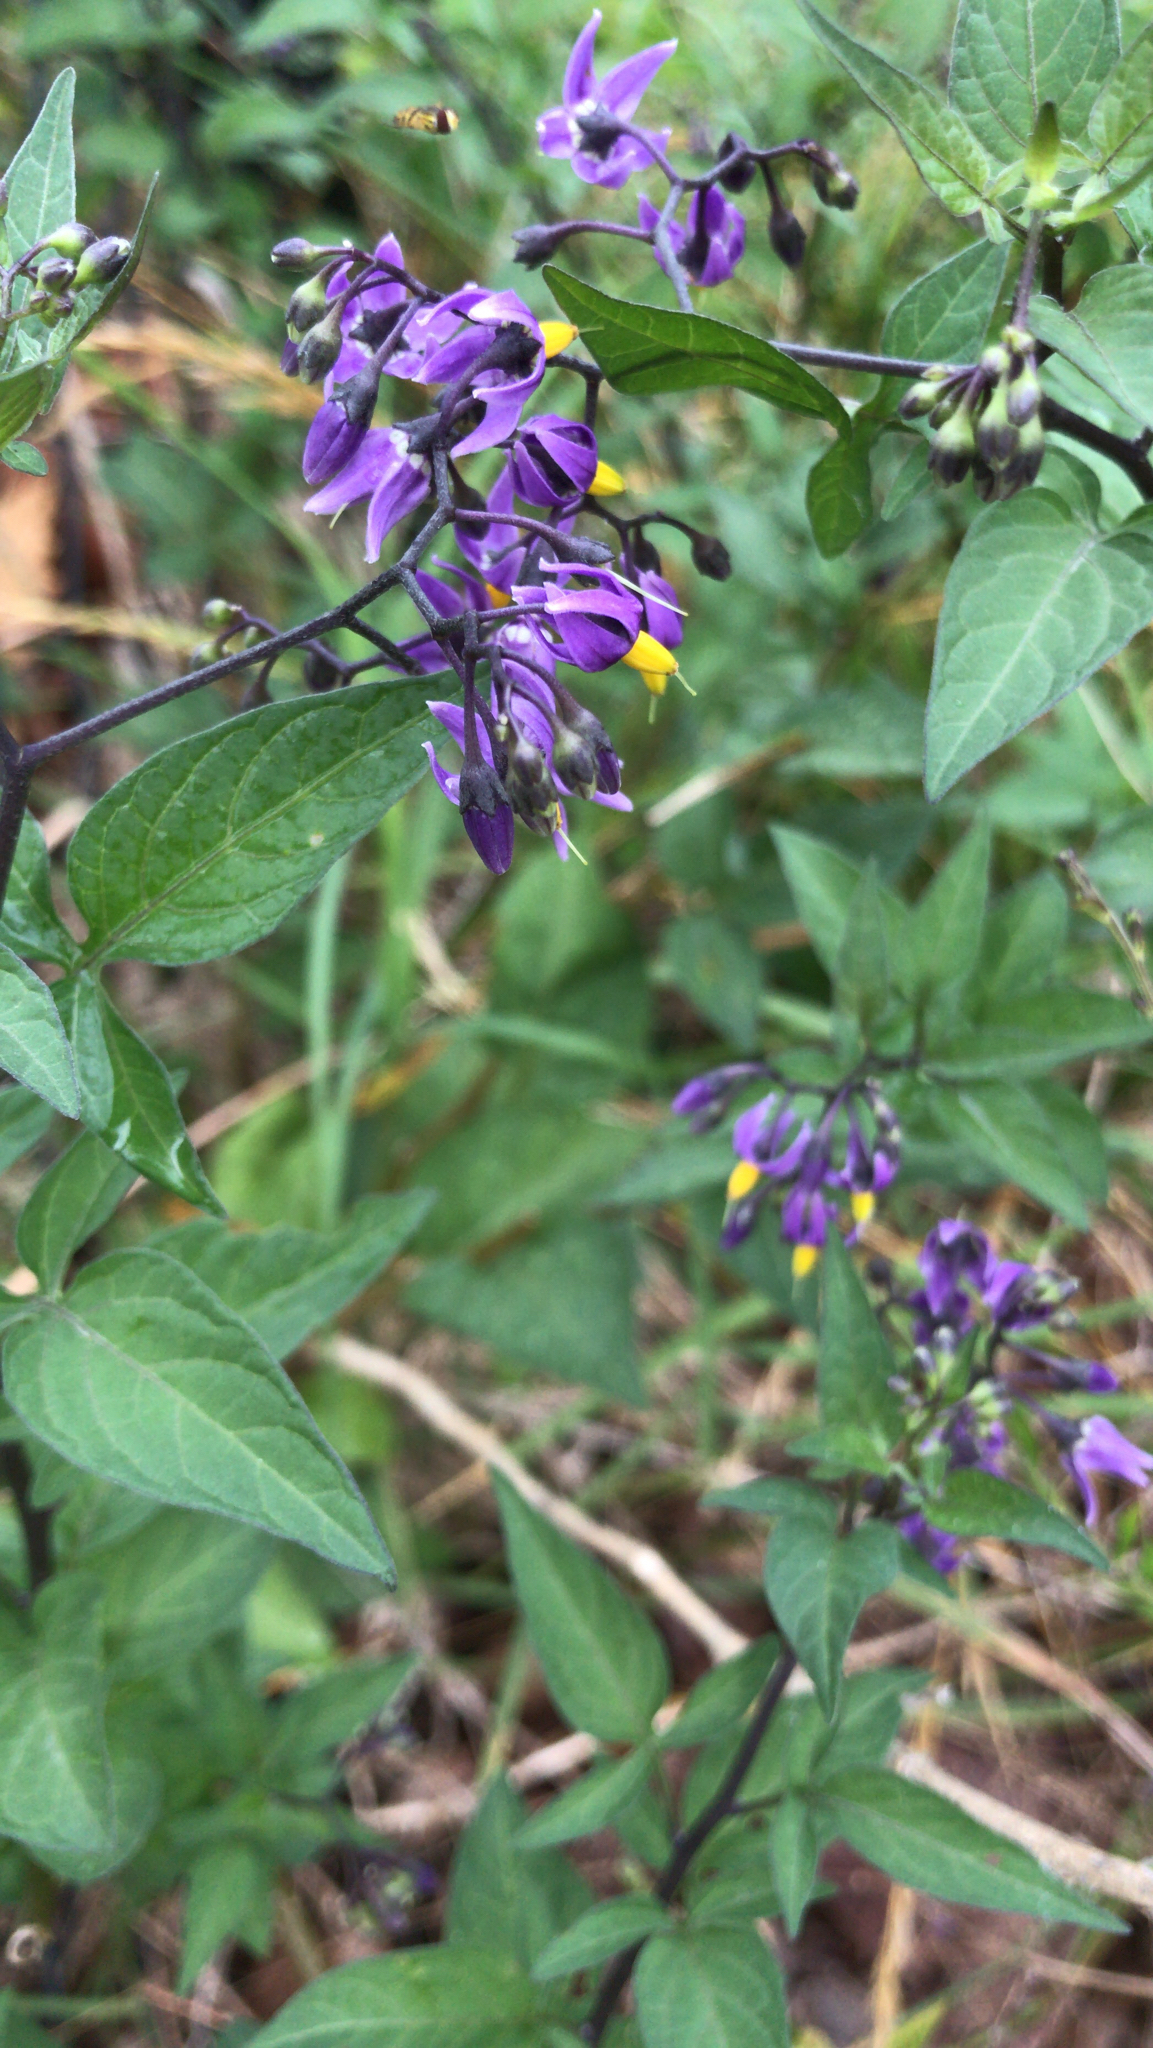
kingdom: Plantae
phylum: Tracheophyta
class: Magnoliopsida
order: Solanales
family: Solanaceae
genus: Solanum
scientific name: Solanum dulcamara
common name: Climbing nightshade
